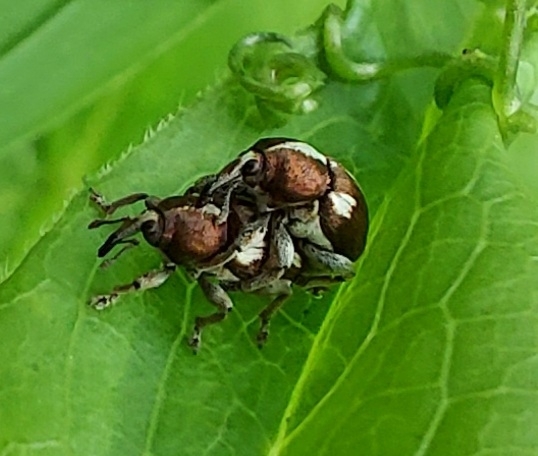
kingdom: Animalia
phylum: Arthropoda
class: Insecta
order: Coleoptera
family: Curculionidae
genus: Tychius
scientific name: Tychius quinquepunctatus
